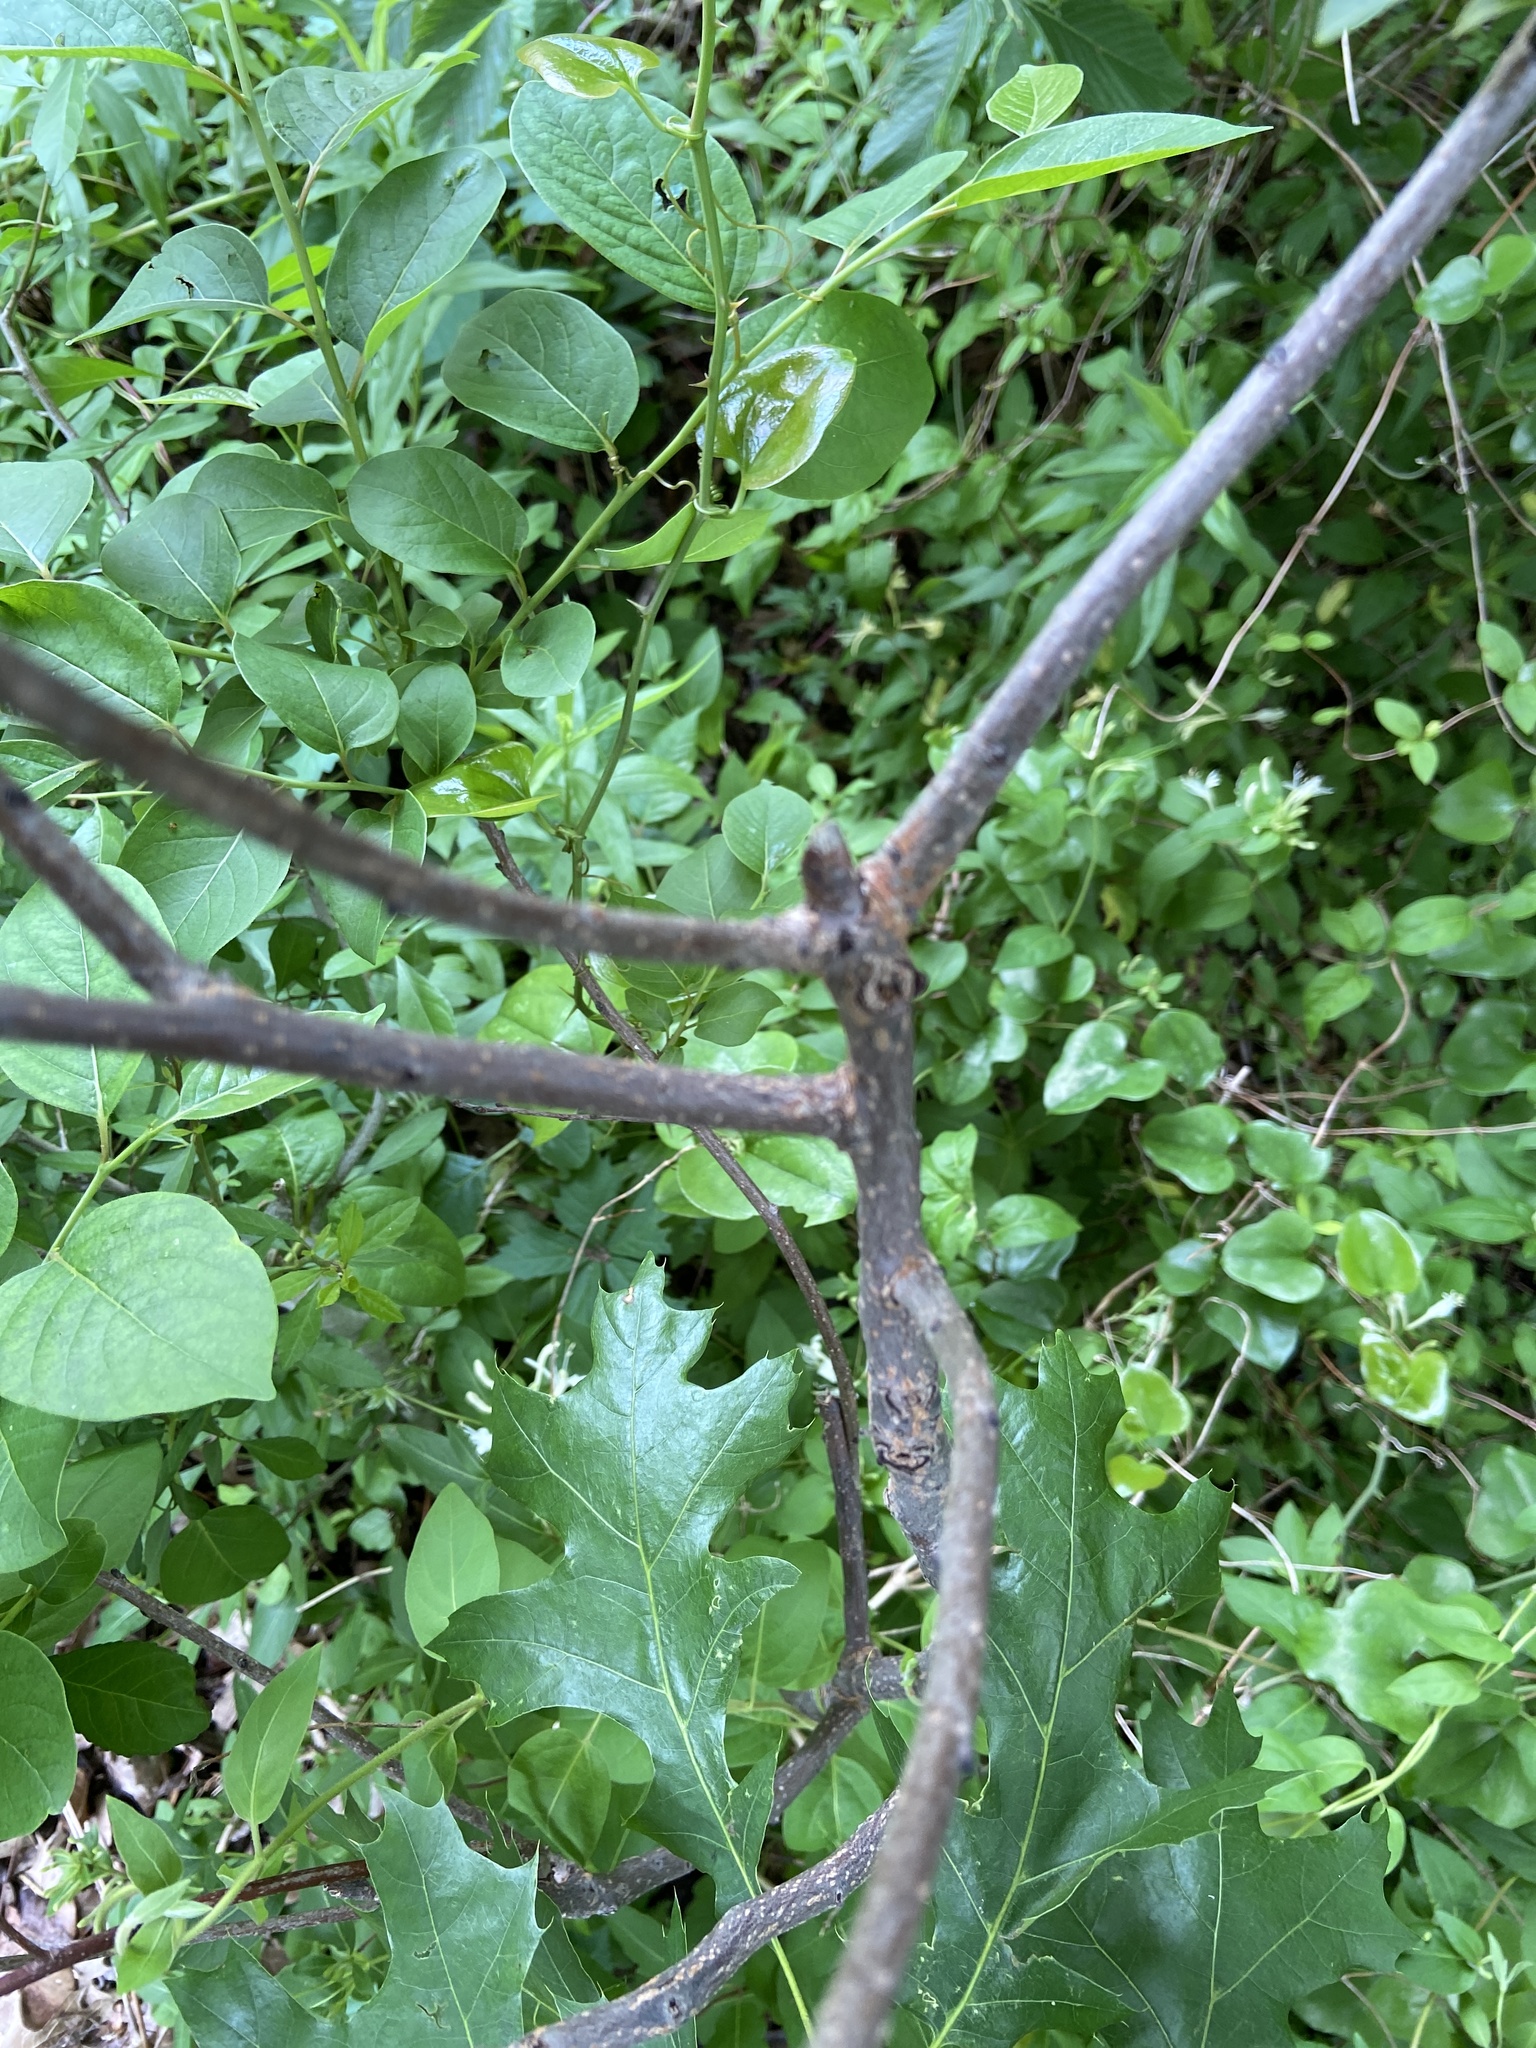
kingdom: Plantae
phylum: Tracheophyta
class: Magnoliopsida
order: Ericales
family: Ebenaceae
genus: Diospyros
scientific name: Diospyros virginiana
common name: Persimmon
